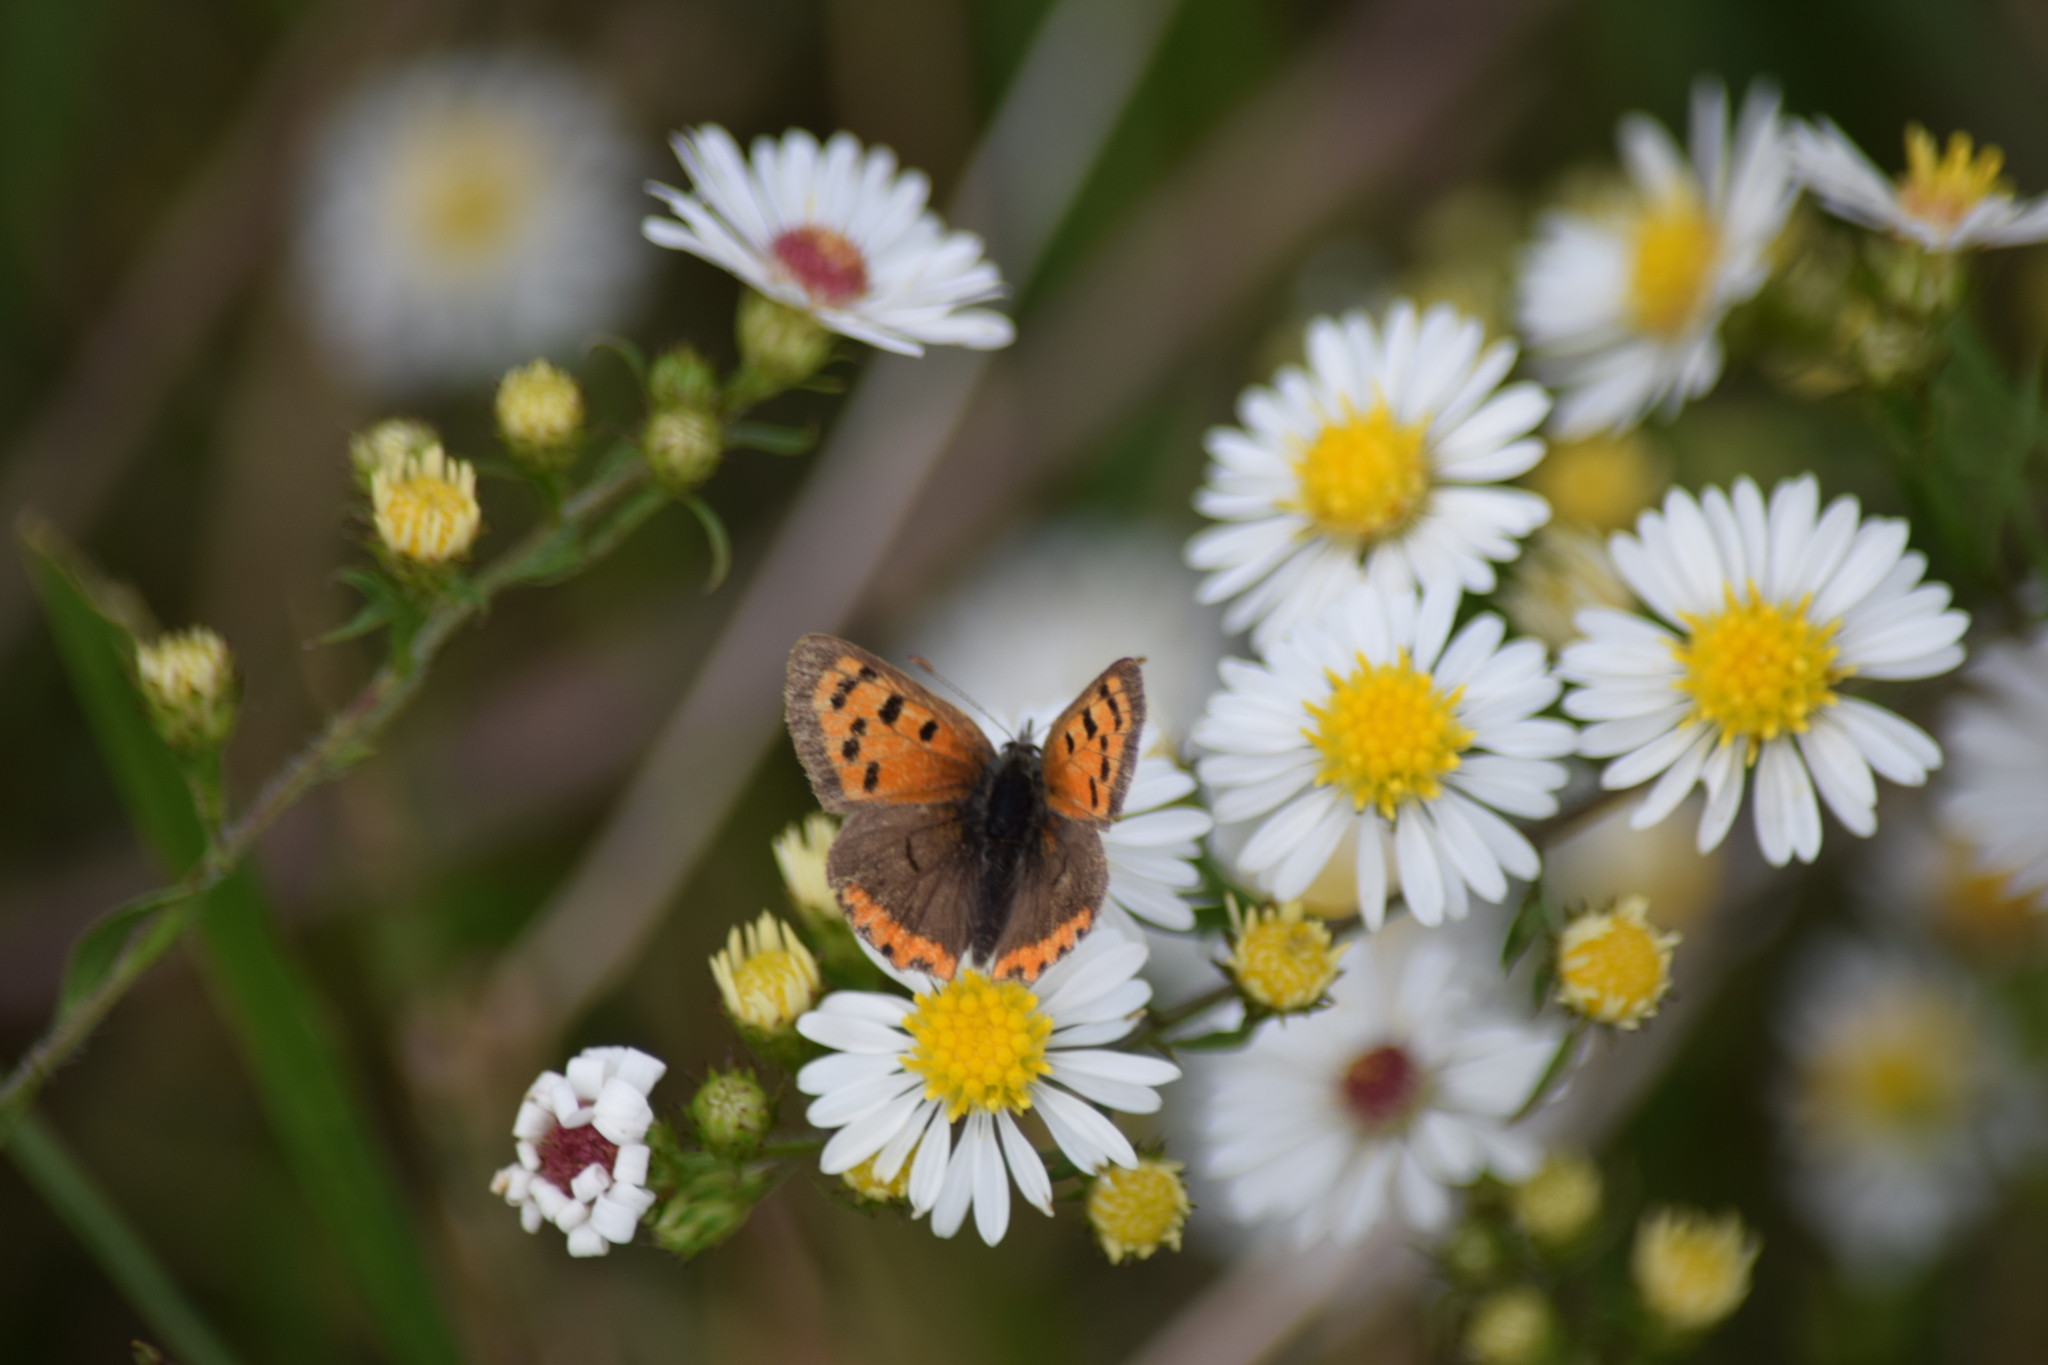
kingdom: Animalia
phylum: Arthropoda
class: Insecta
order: Lepidoptera
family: Lycaenidae
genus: Lycaena
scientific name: Lycaena hypophlaeas
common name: American copper
